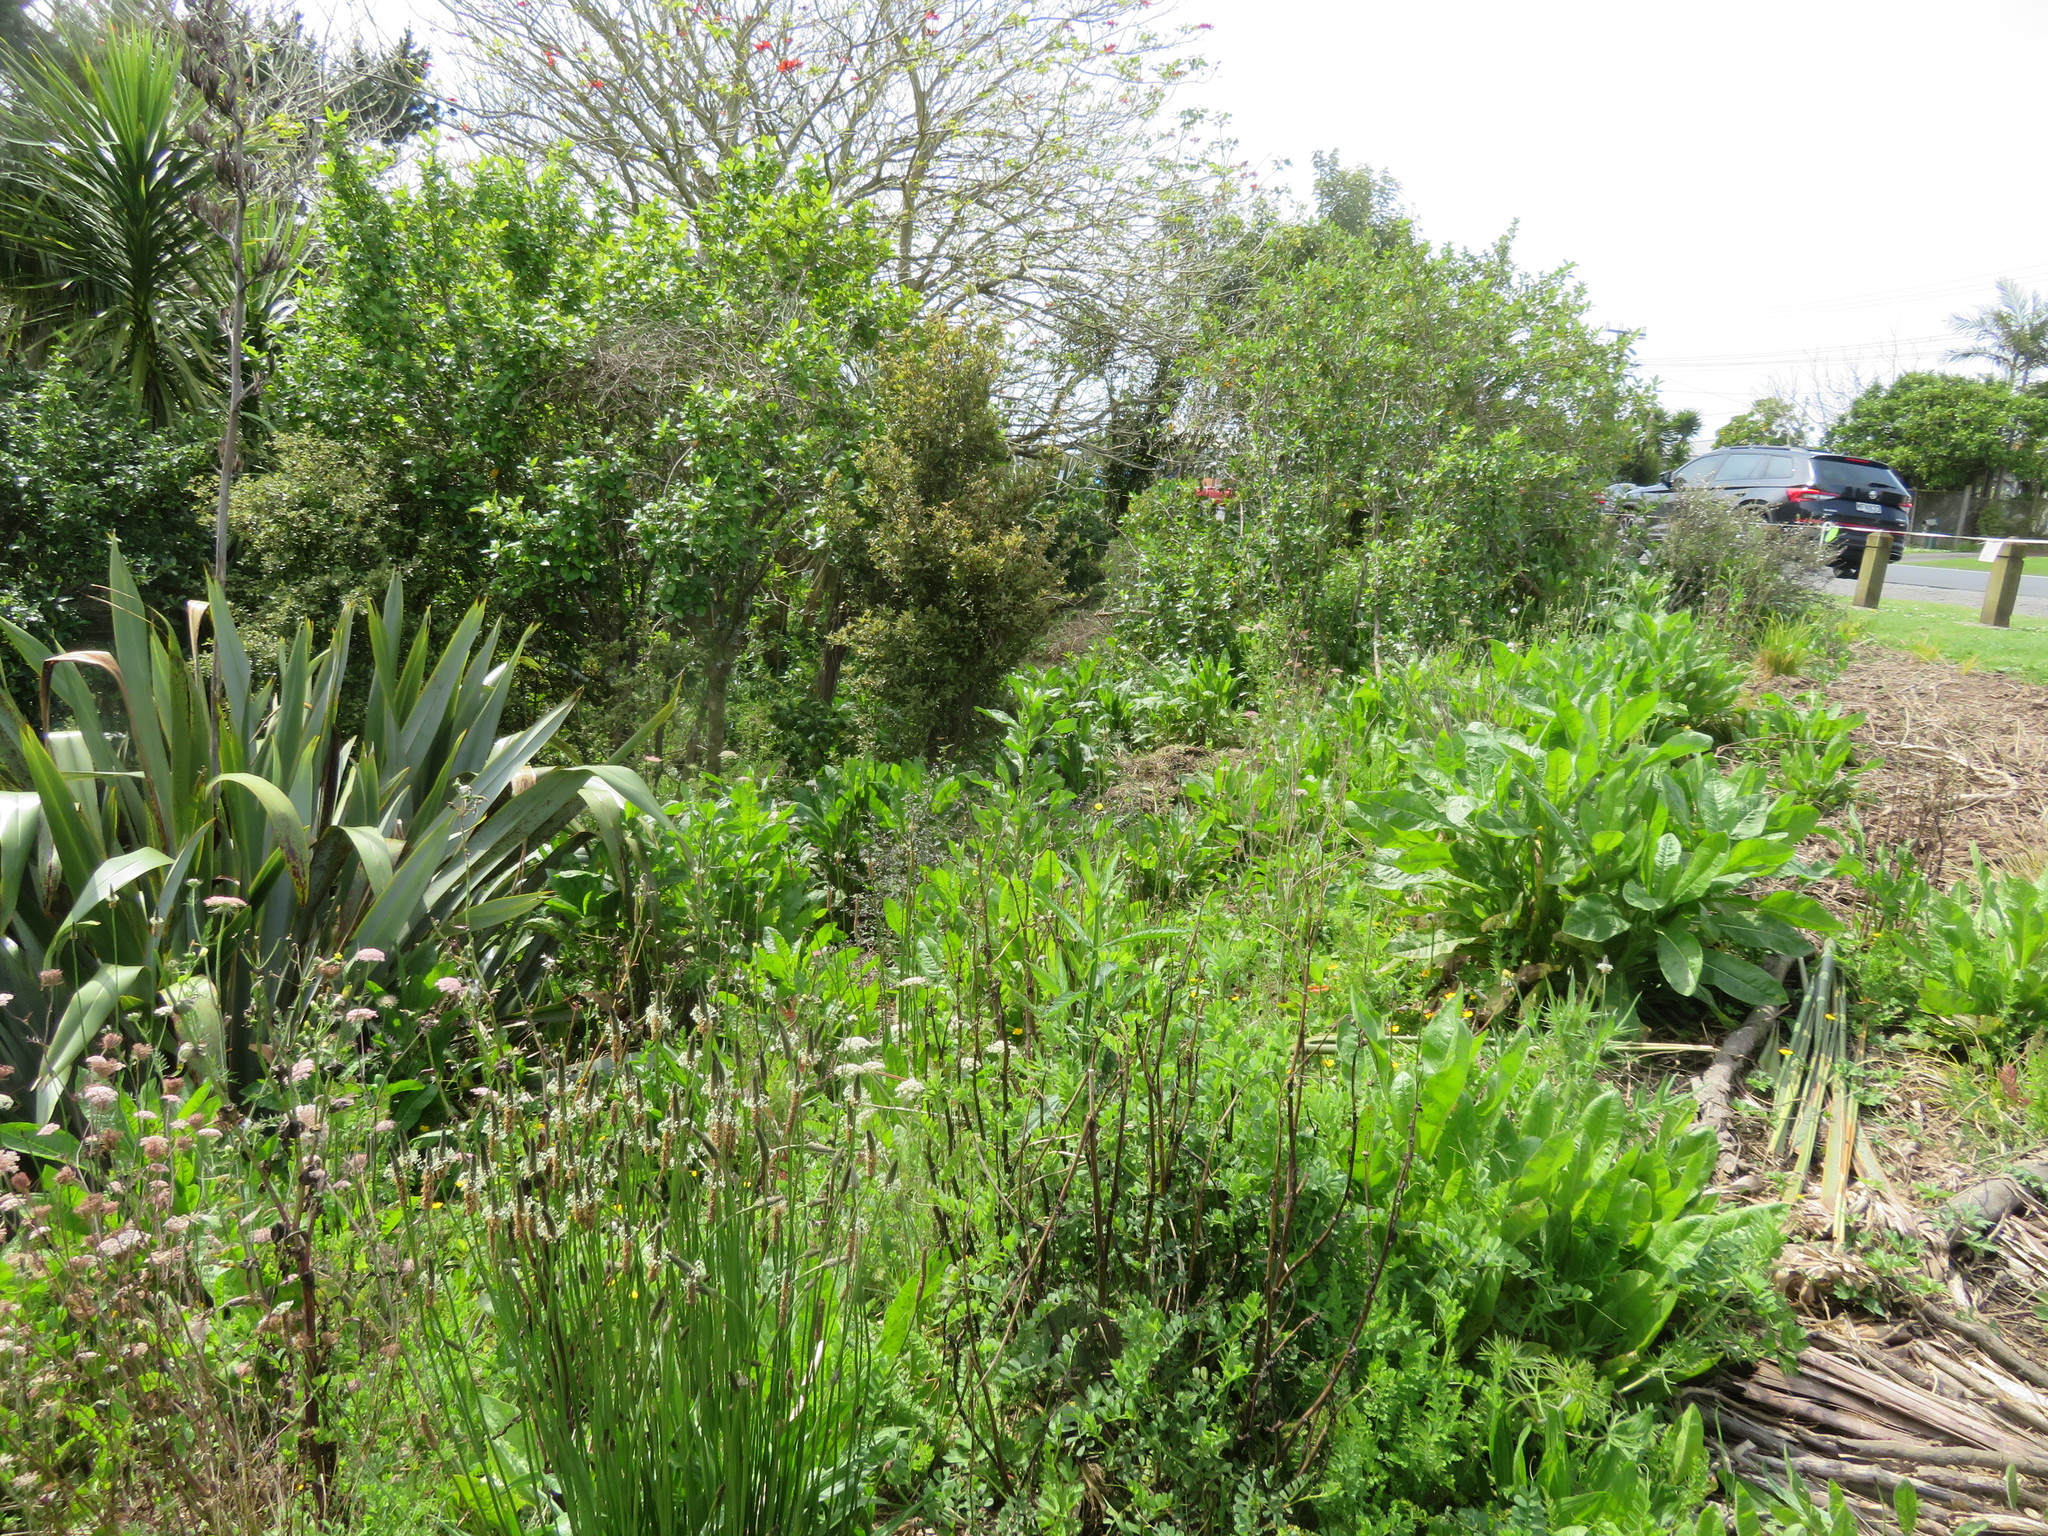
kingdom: Plantae
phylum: Tracheophyta
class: Magnoliopsida
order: Lamiales
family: Plantaginaceae
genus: Plantago
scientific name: Plantago lanceolata
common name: Ribwort plantain
